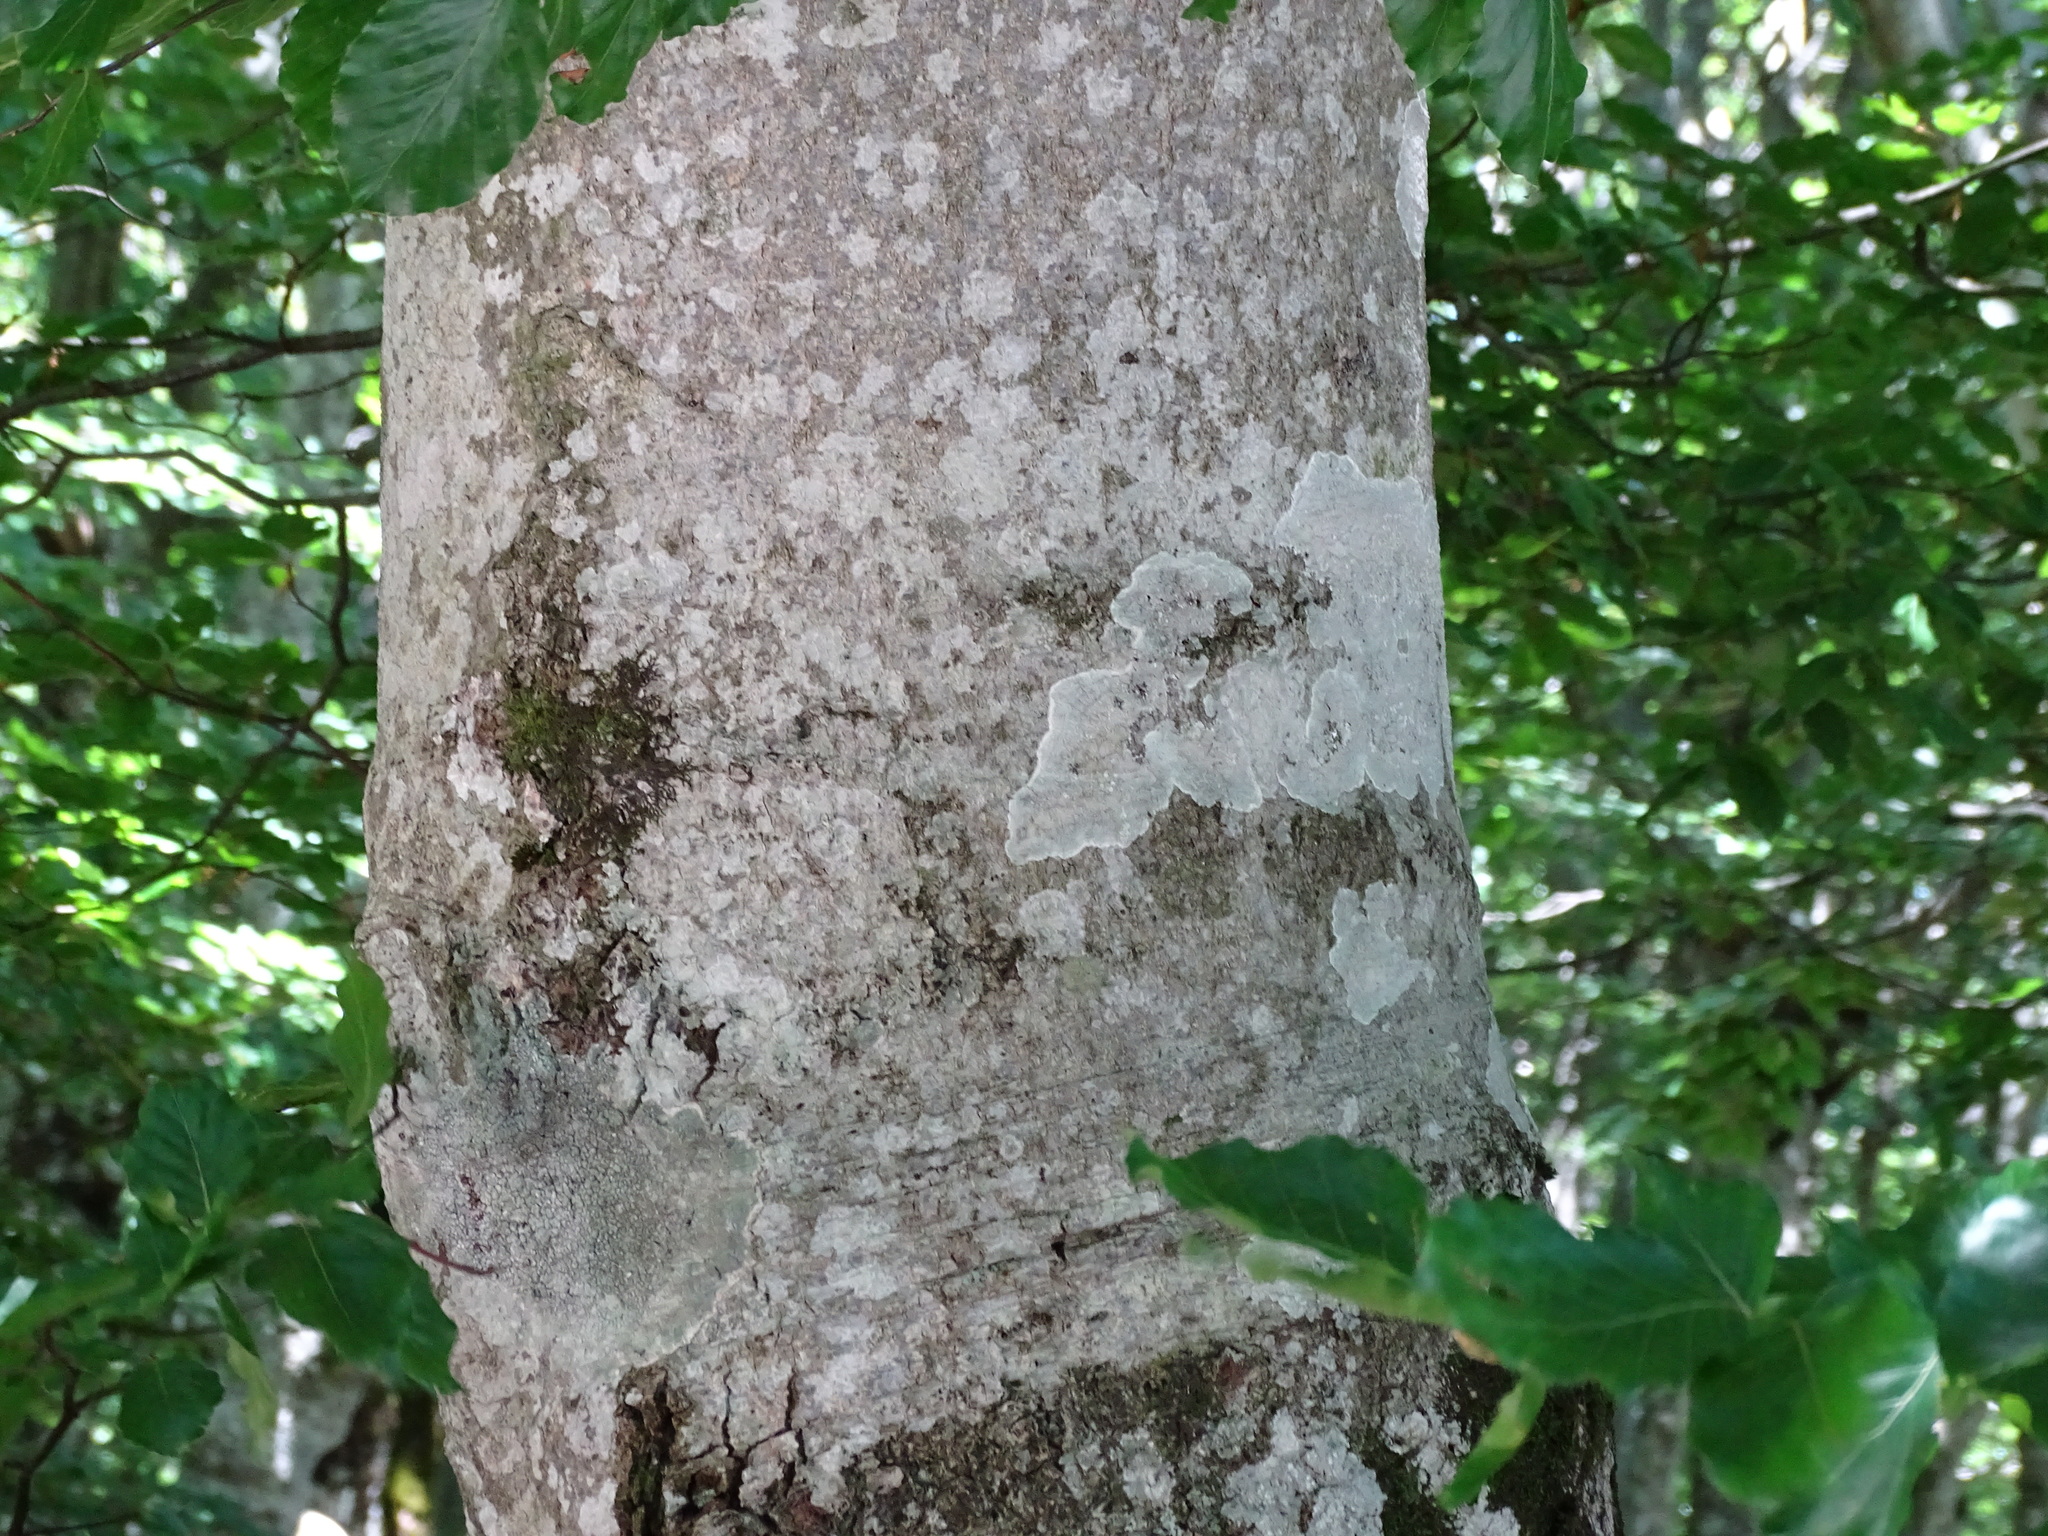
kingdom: Plantae
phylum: Tracheophyta
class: Magnoliopsida
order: Fagales
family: Fagaceae
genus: Fagus
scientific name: Fagus sylvatica
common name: Beech
